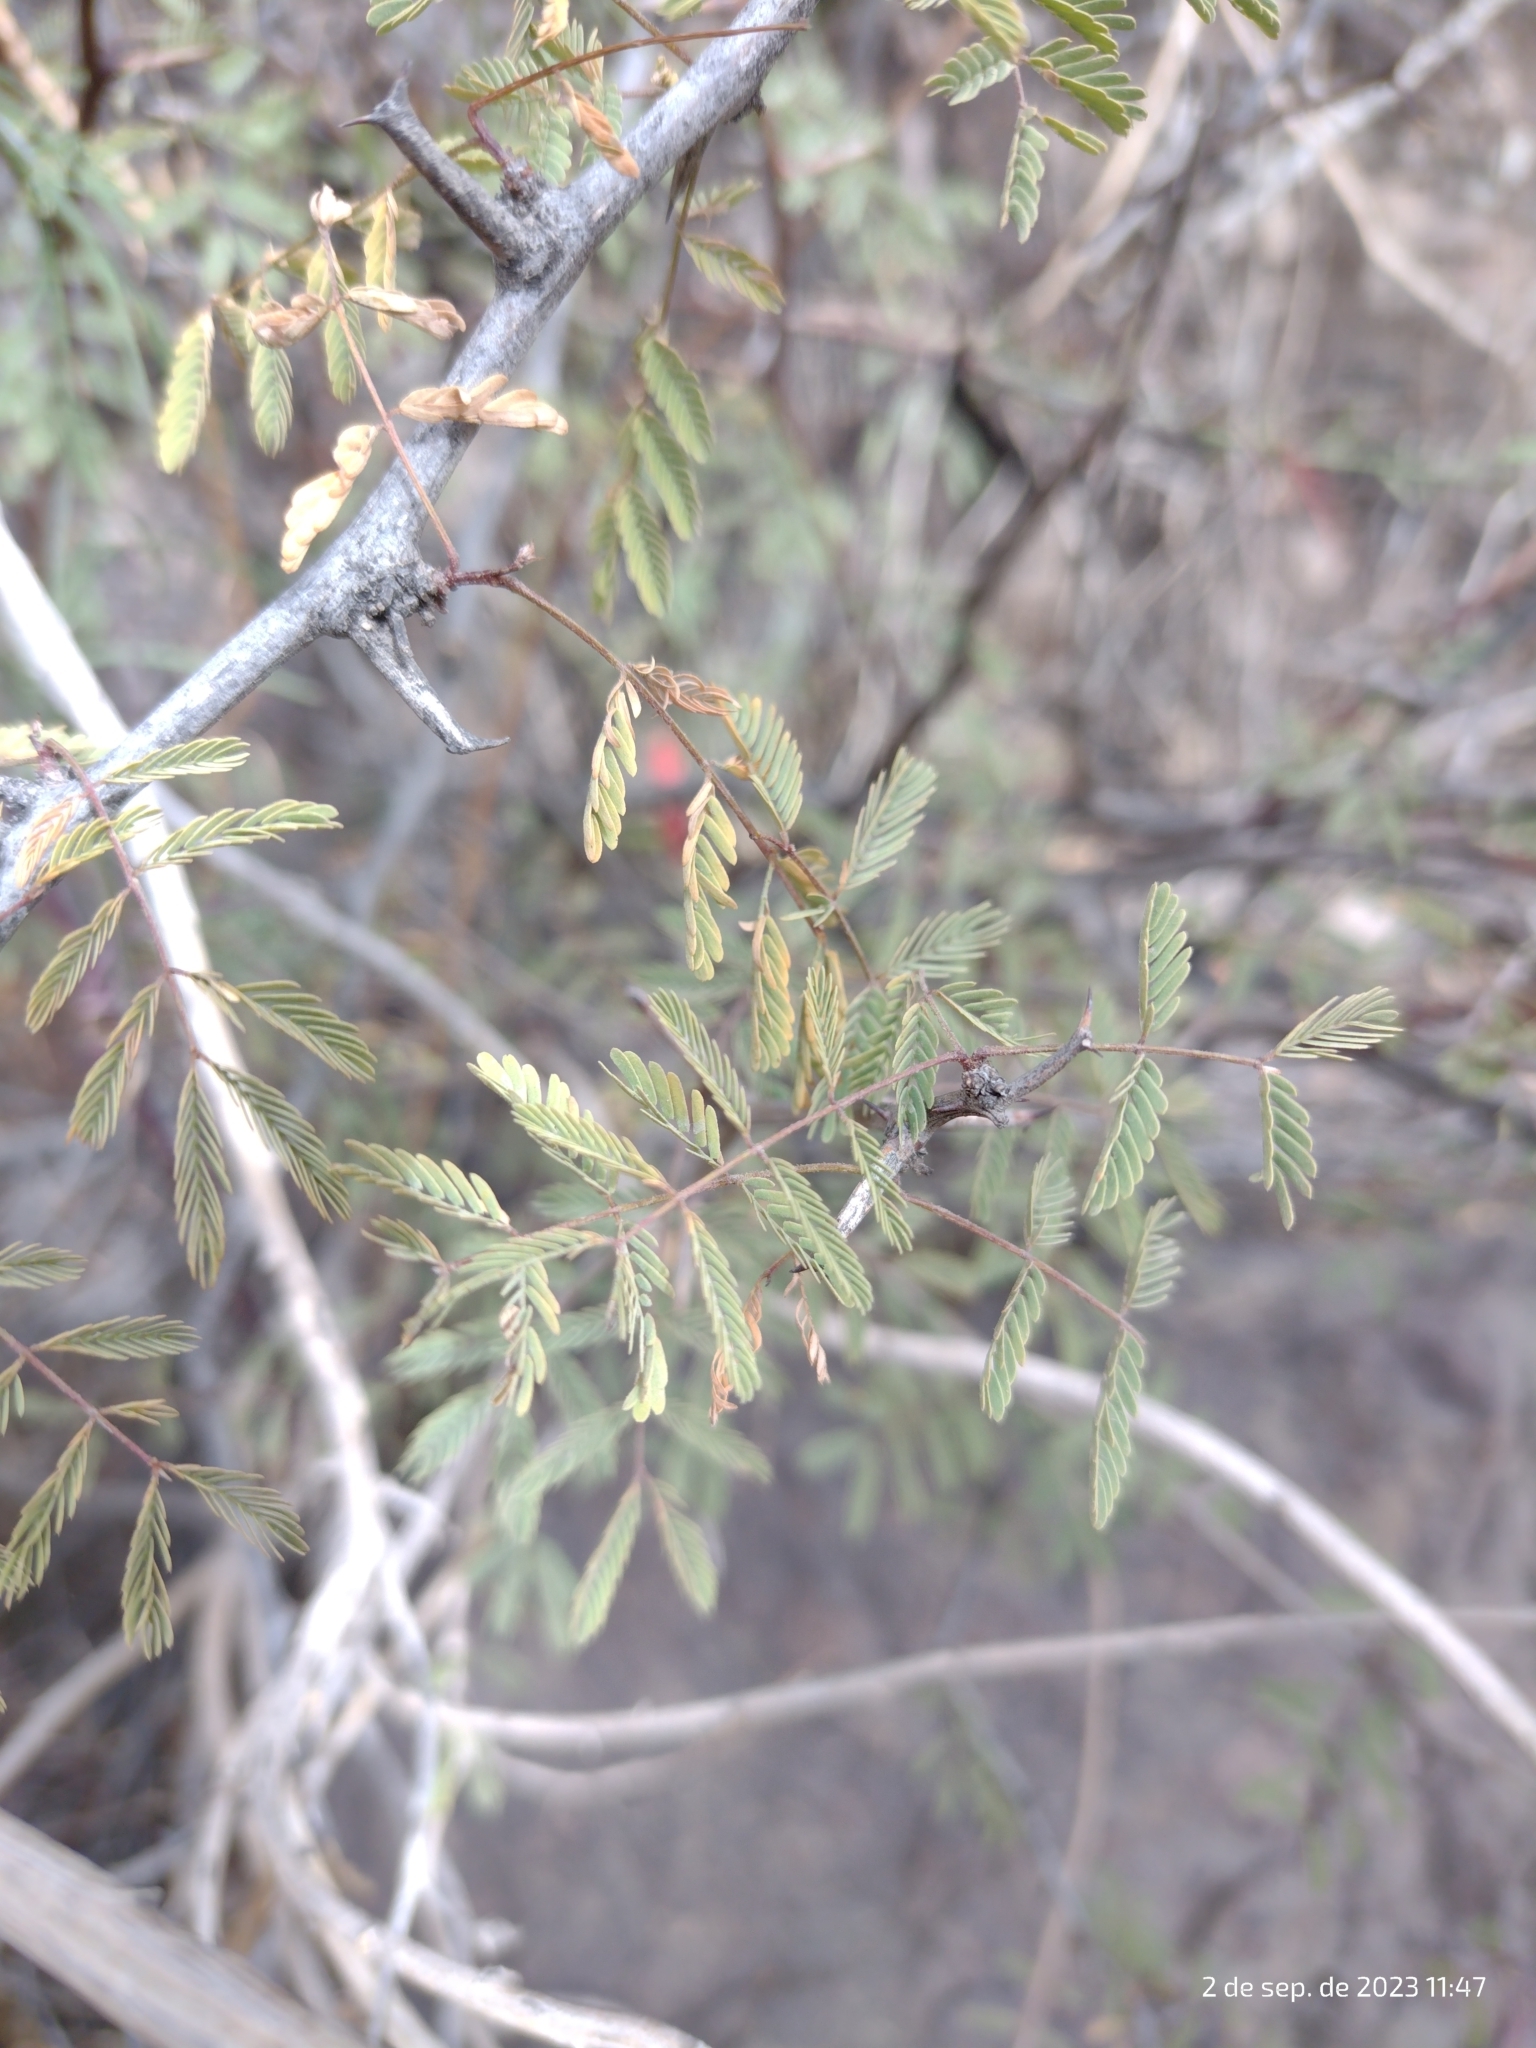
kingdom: Plantae
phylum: Tracheophyta
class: Magnoliopsida
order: Fabales
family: Fabaceae
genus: Senegalia
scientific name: Senegalia gilliesii
